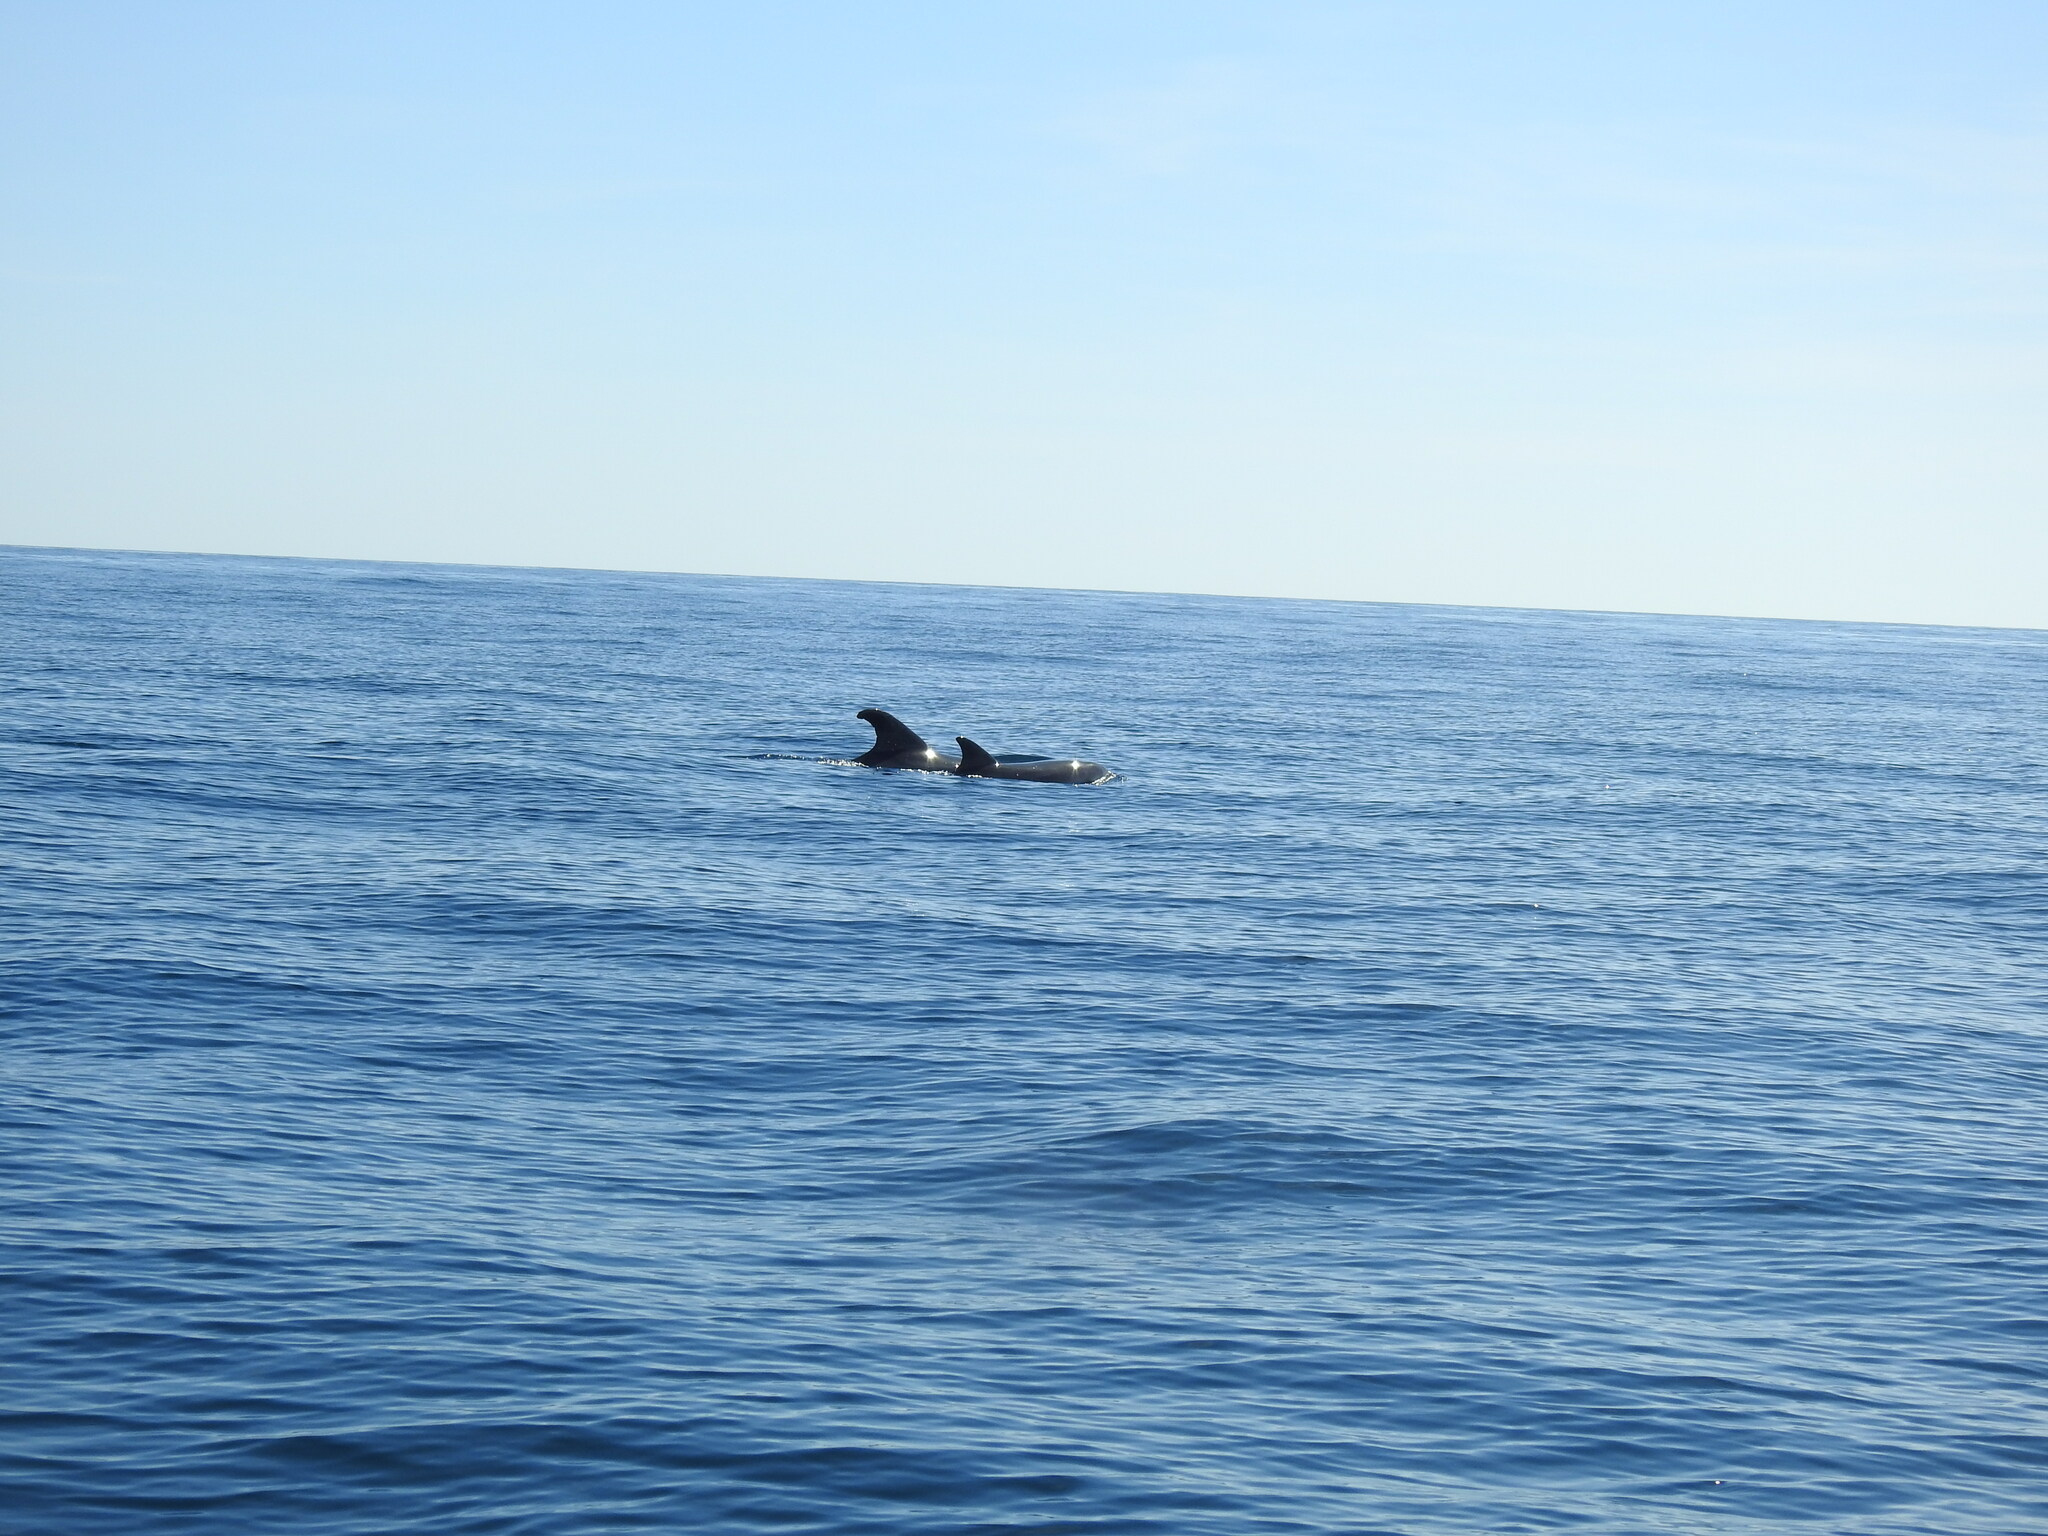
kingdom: Animalia
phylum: Chordata
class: Mammalia
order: Cetacea
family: Delphinidae
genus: Tursiops
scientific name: Tursiops truncatus
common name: Bottlenose dolphin
